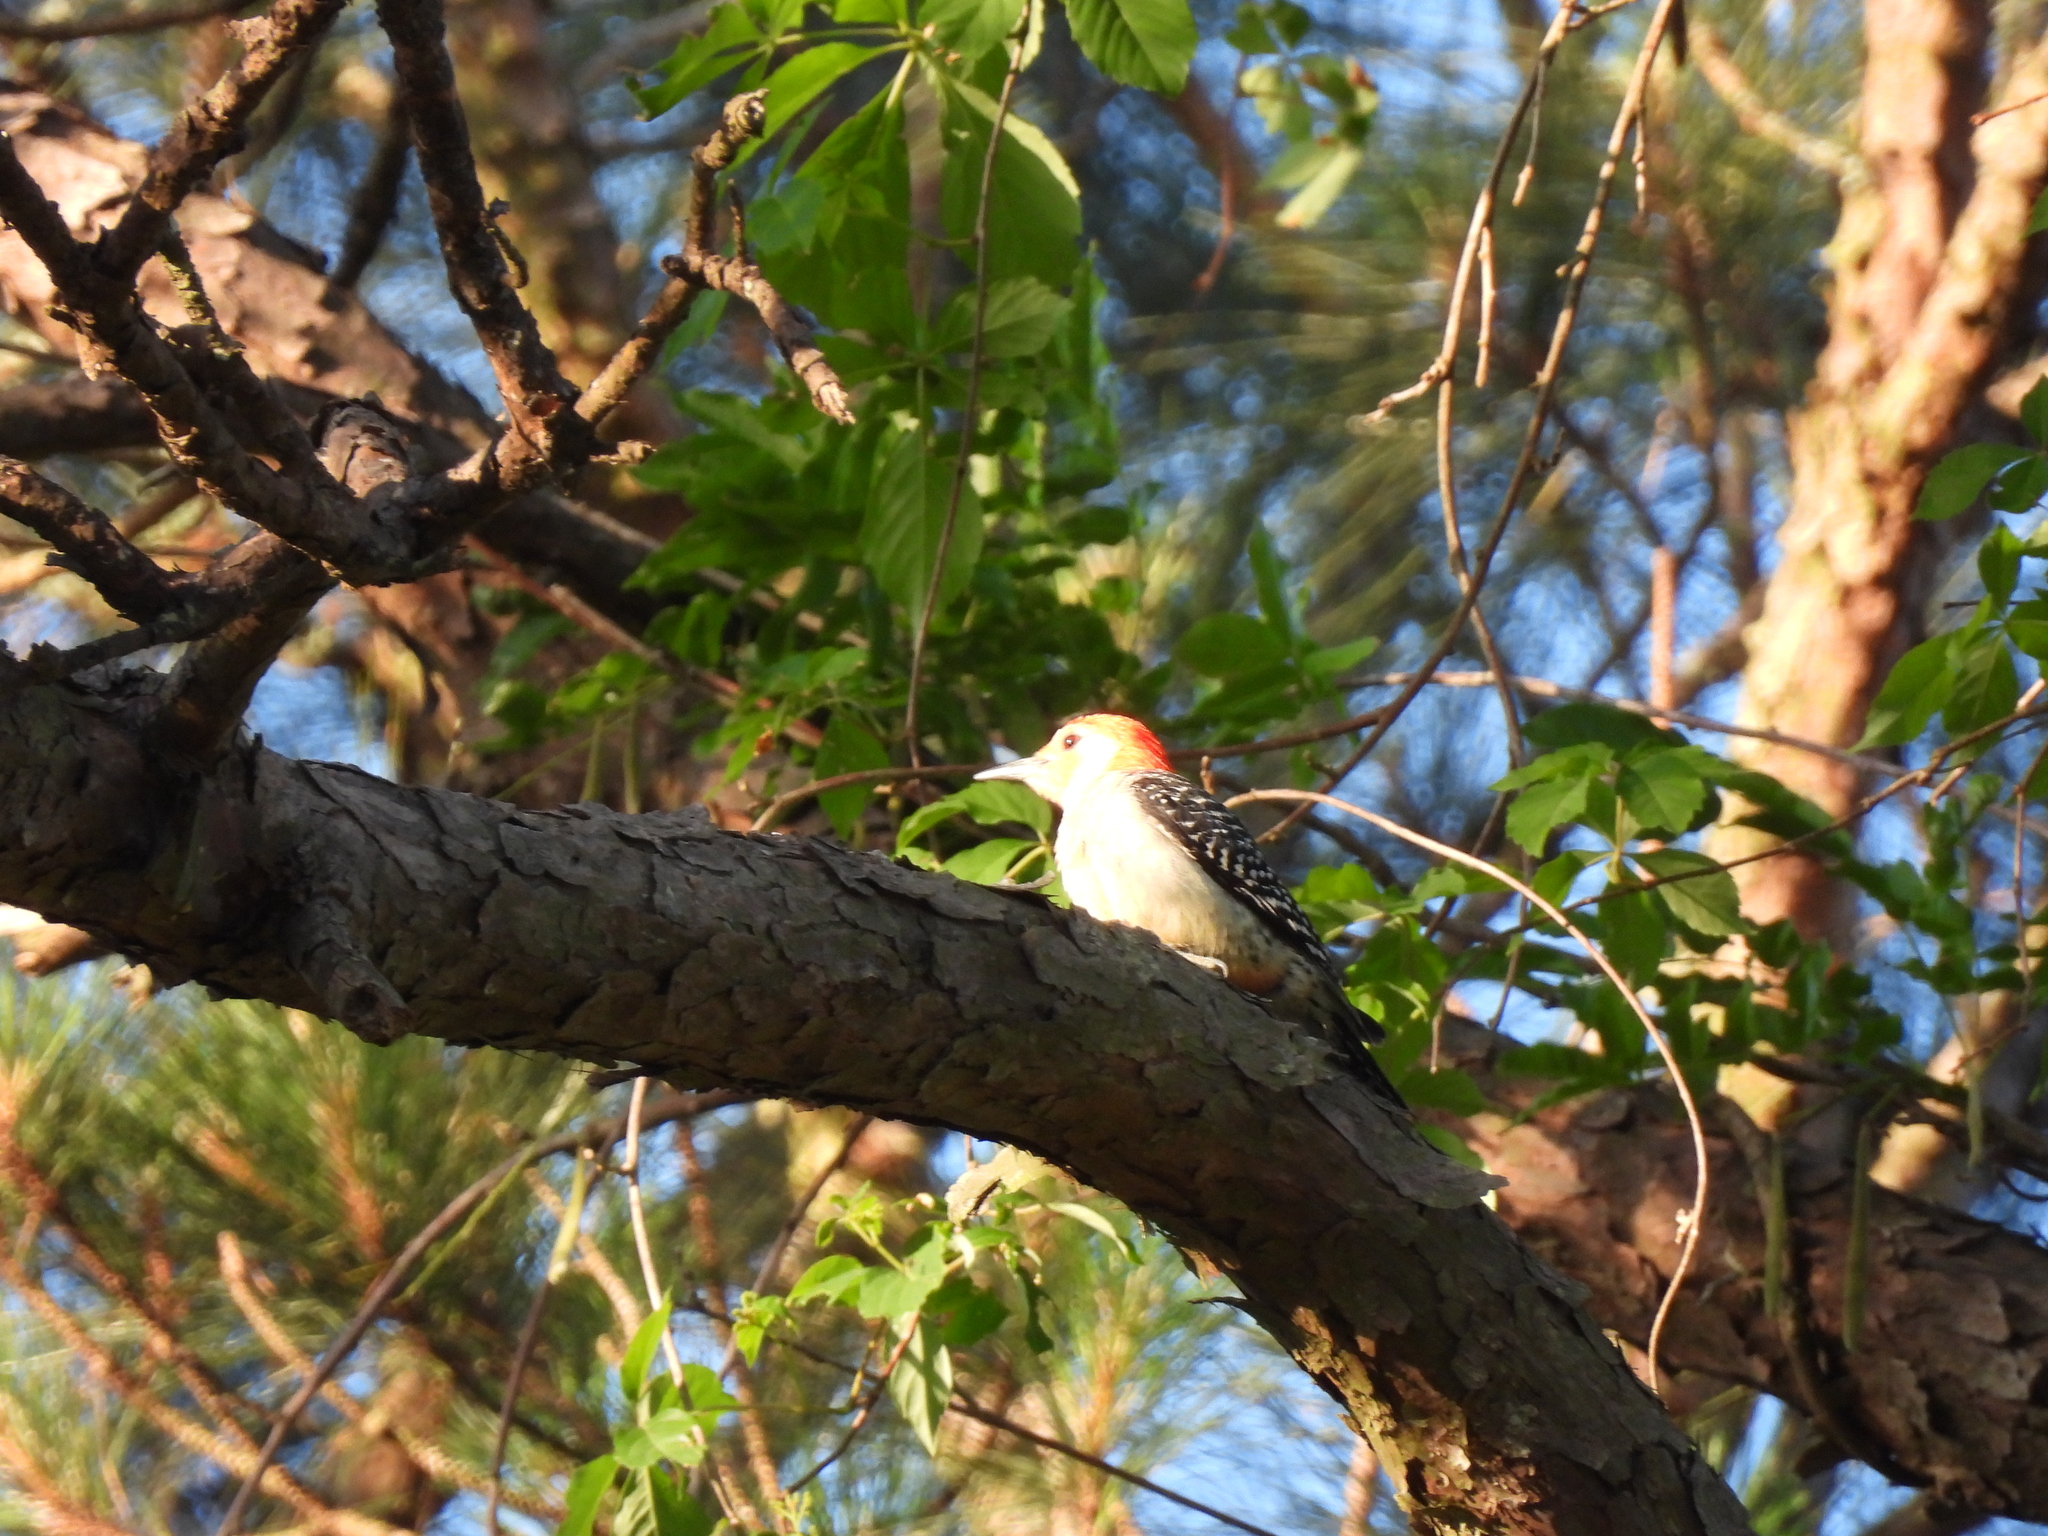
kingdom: Animalia
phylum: Chordata
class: Aves
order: Piciformes
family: Picidae
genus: Melanerpes
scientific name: Melanerpes carolinus
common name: Red-bellied woodpecker
